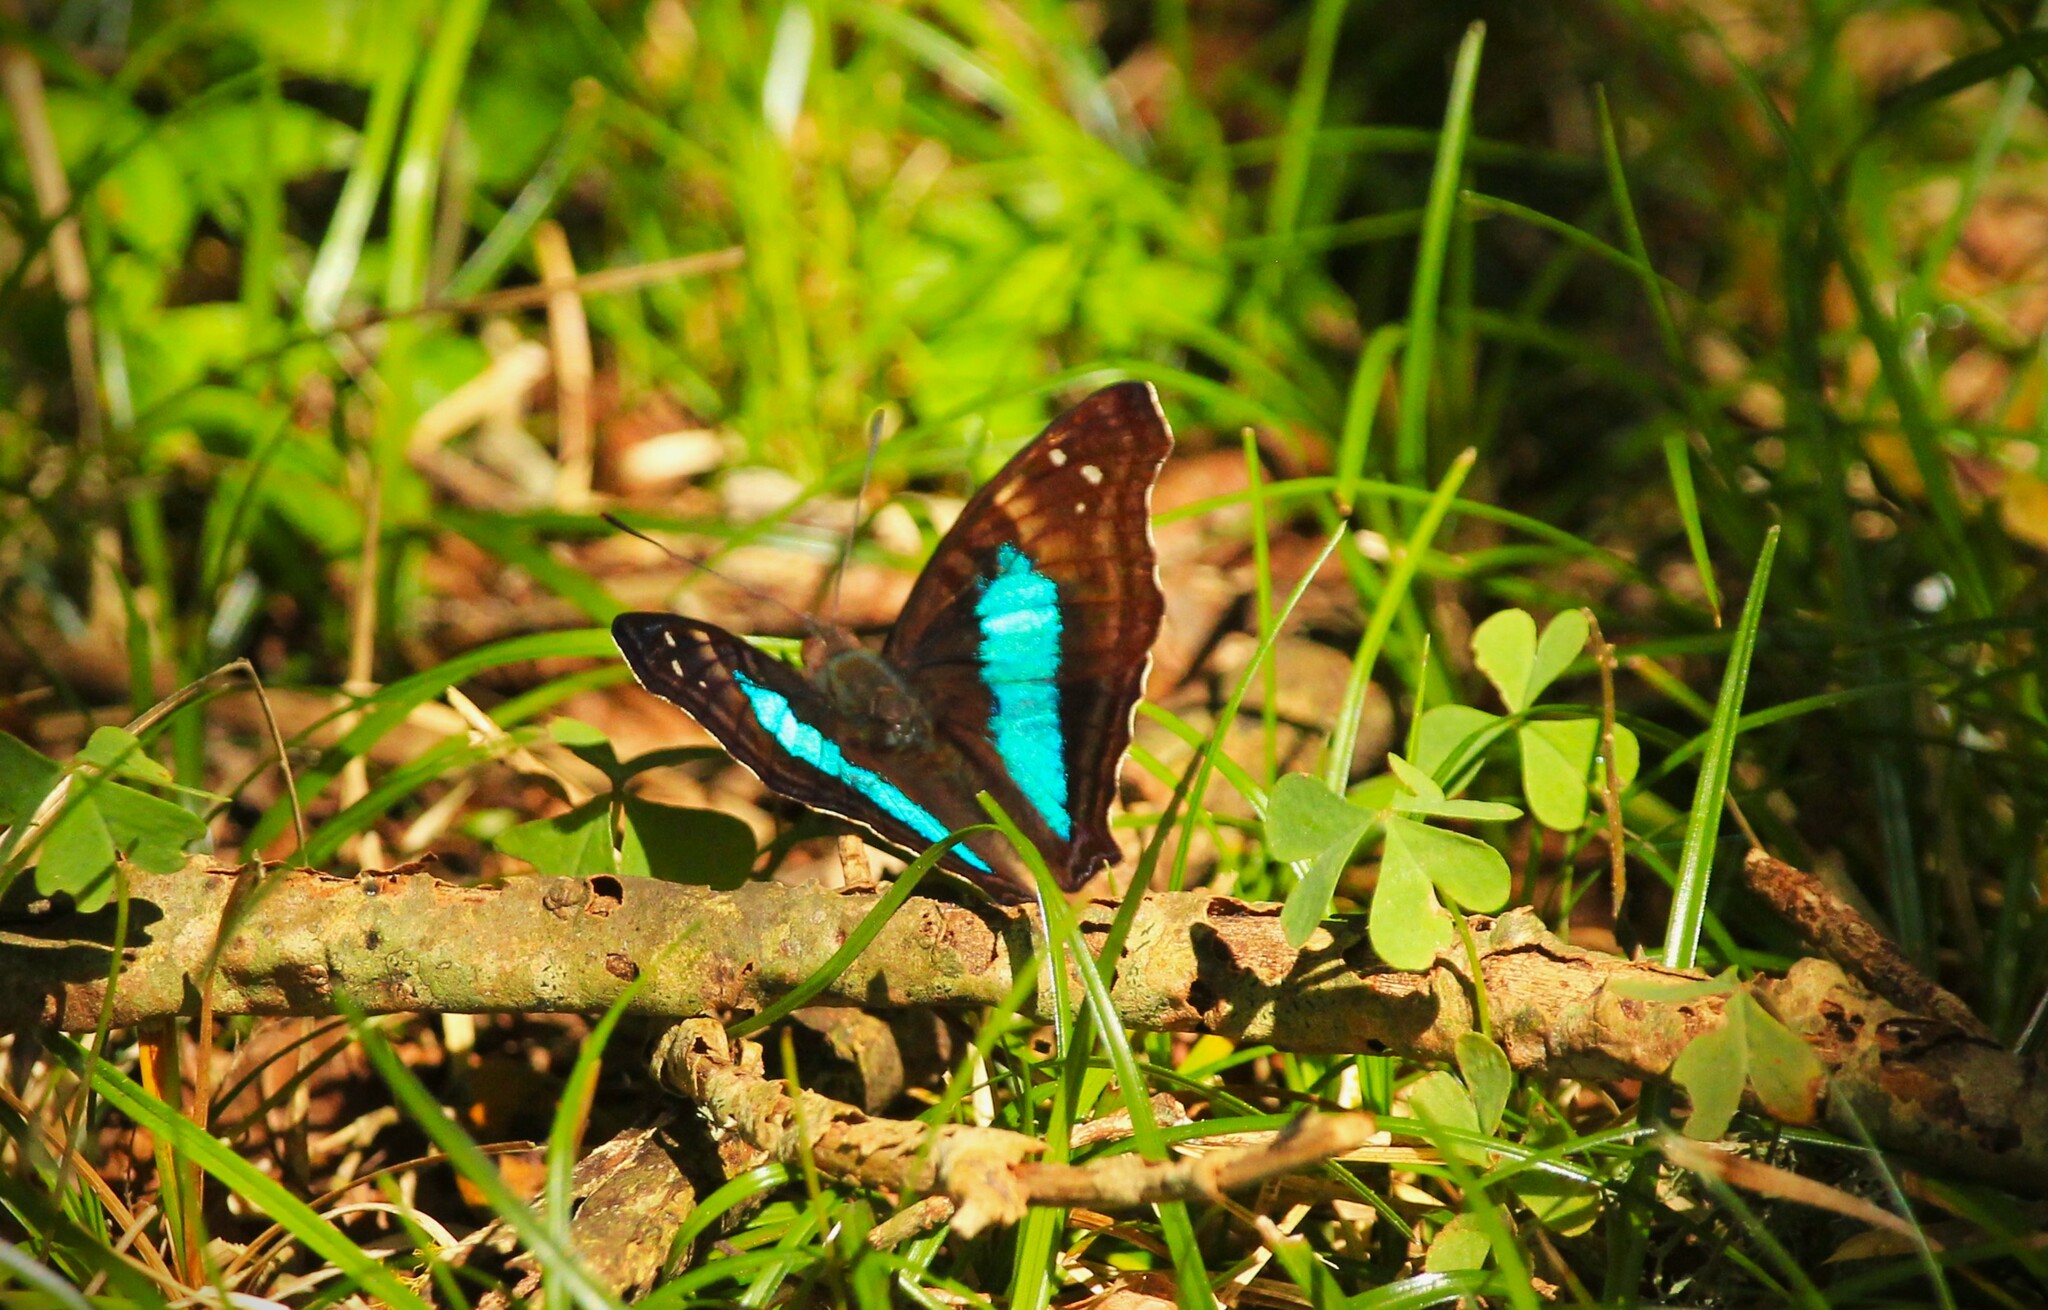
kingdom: Animalia
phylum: Arthropoda
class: Insecta
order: Lepidoptera
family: Nymphalidae
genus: Doxocopa
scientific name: Doxocopa laurentia
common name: Turquoise emperor
